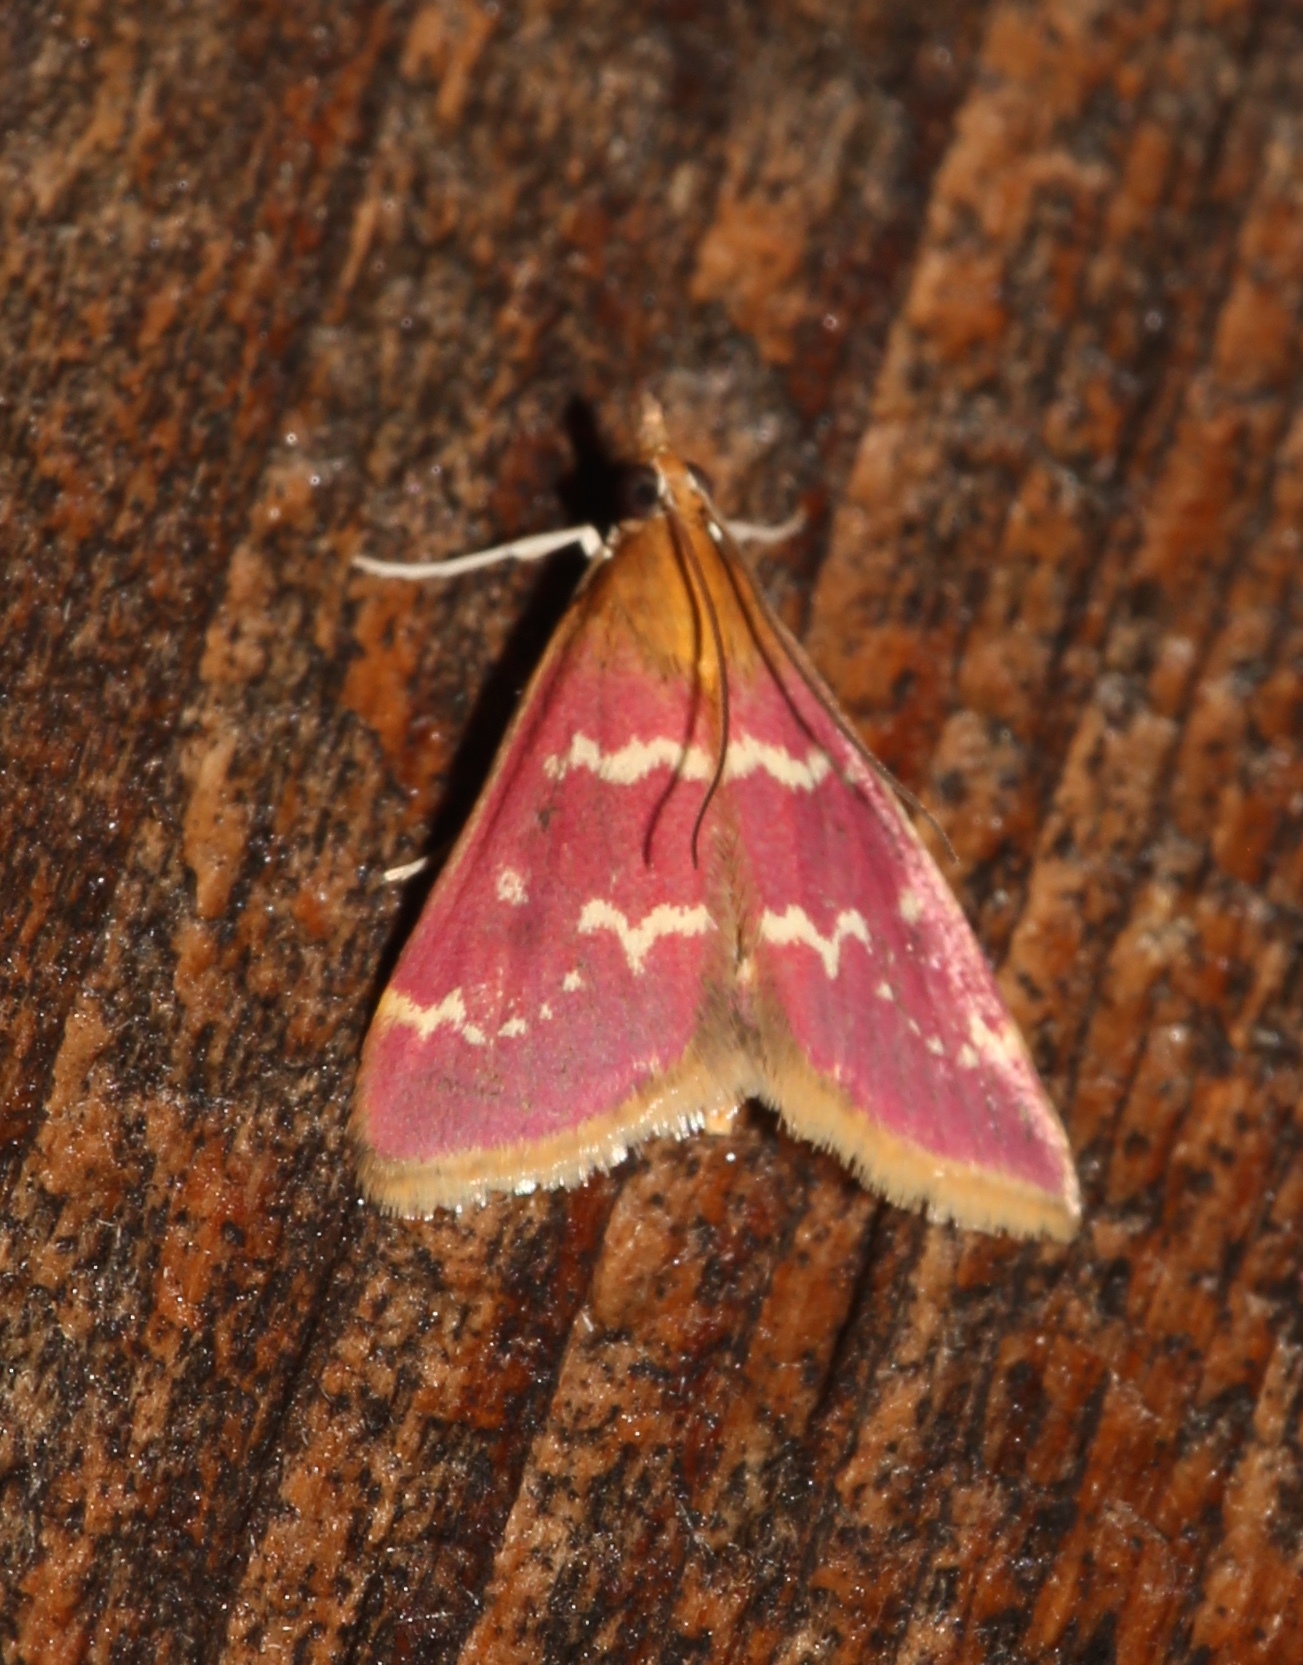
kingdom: Animalia
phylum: Arthropoda
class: Insecta
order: Lepidoptera
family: Crambidae
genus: Pyrausta
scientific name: Pyrausta signatalis
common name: Raspberry pyrausta moth
